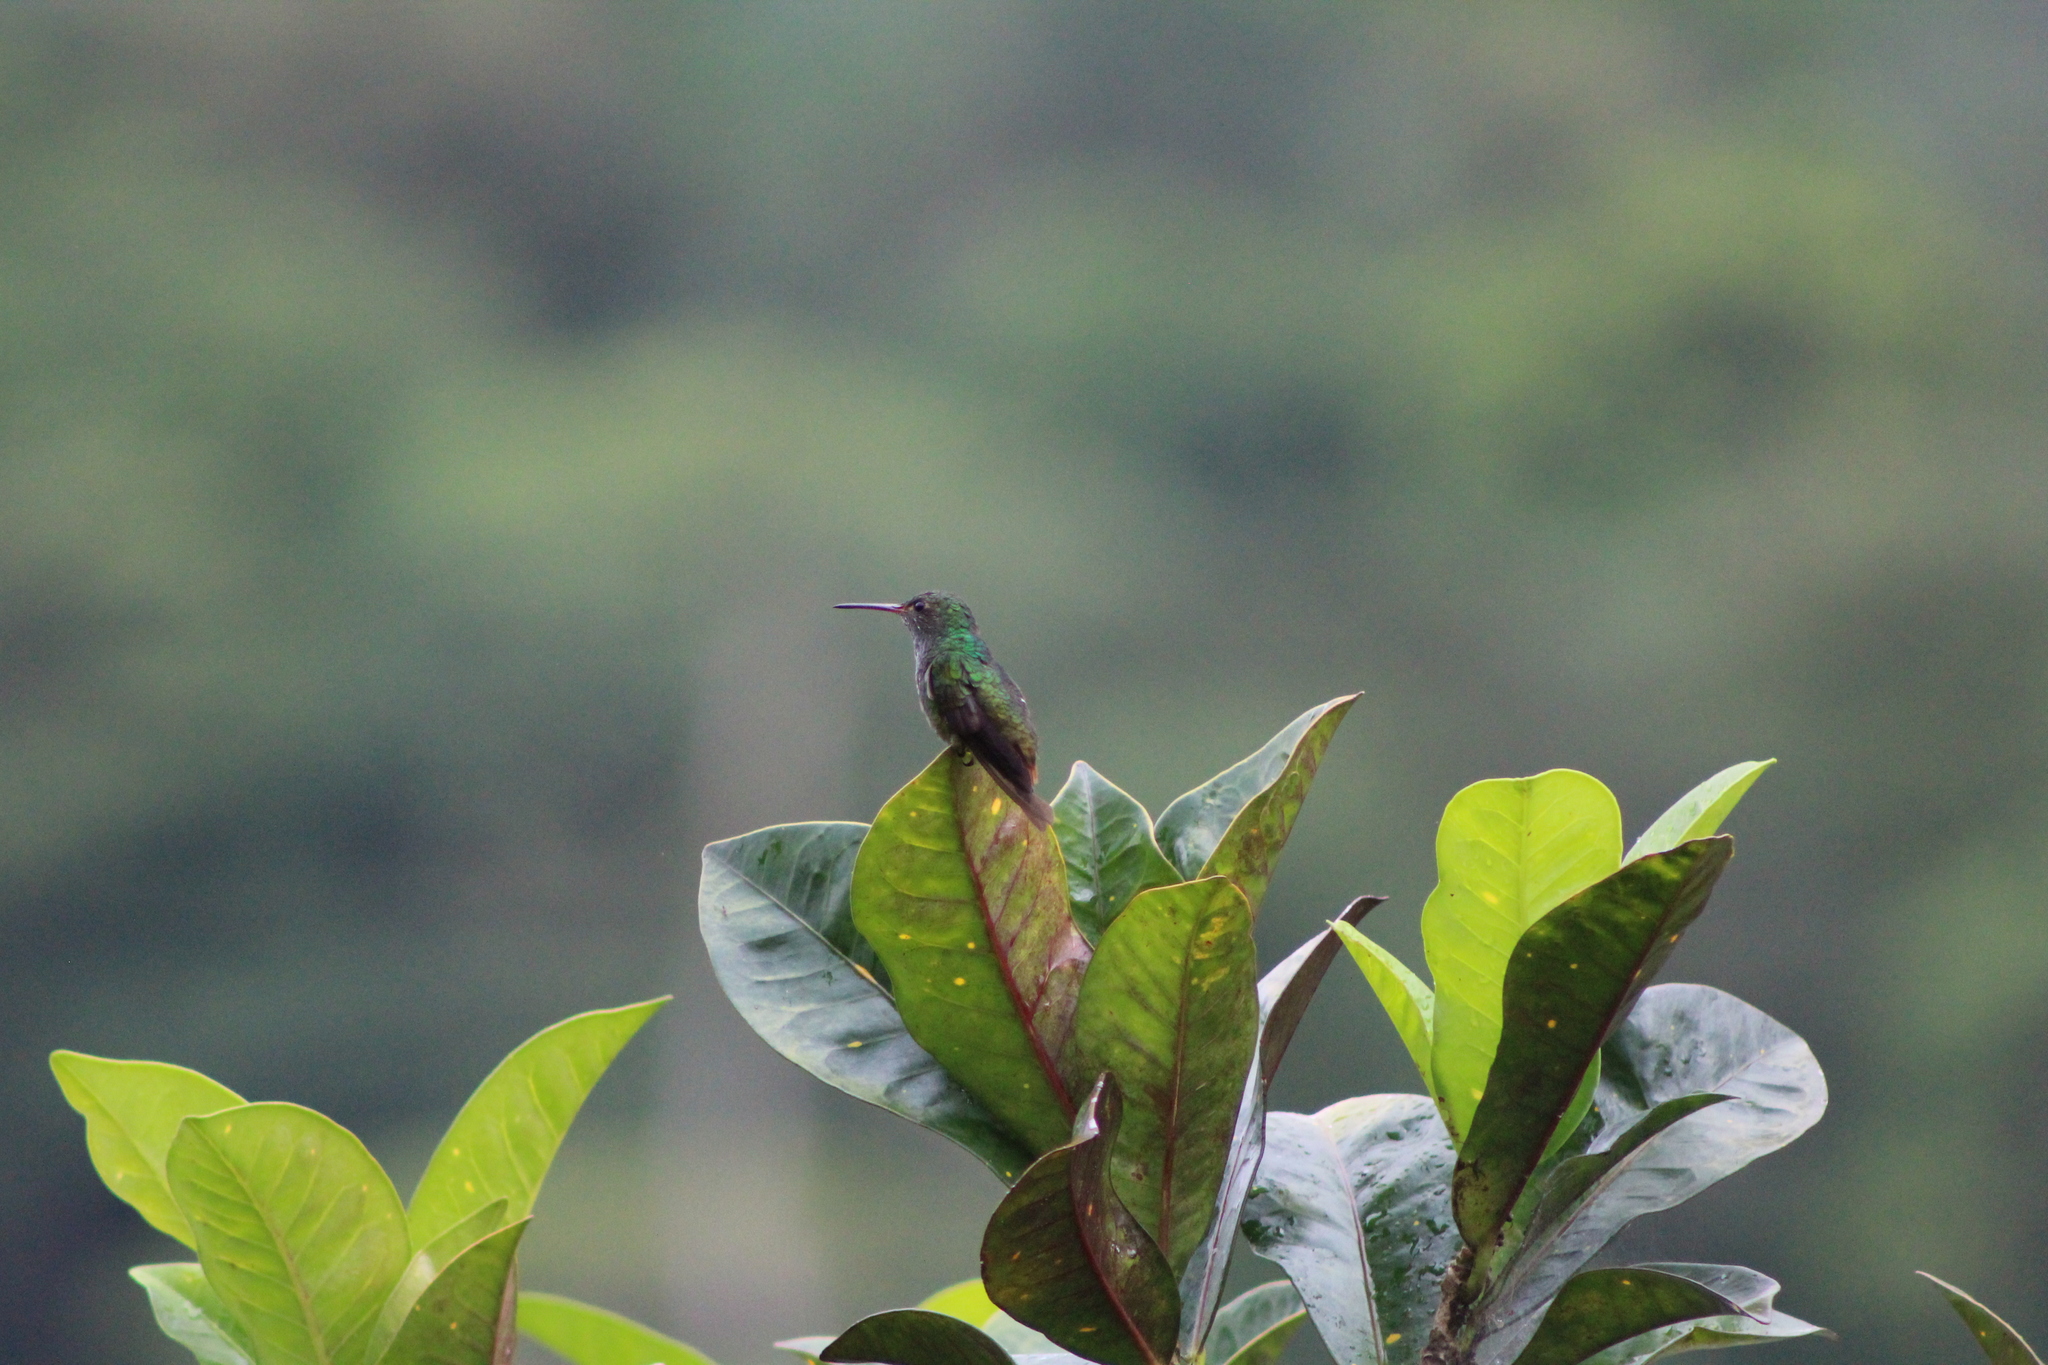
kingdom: Animalia
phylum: Chordata
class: Aves
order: Apodiformes
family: Trochilidae
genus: Amazilia
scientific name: Amazilia tzacatl
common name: Rufous-tailed hummingbird
